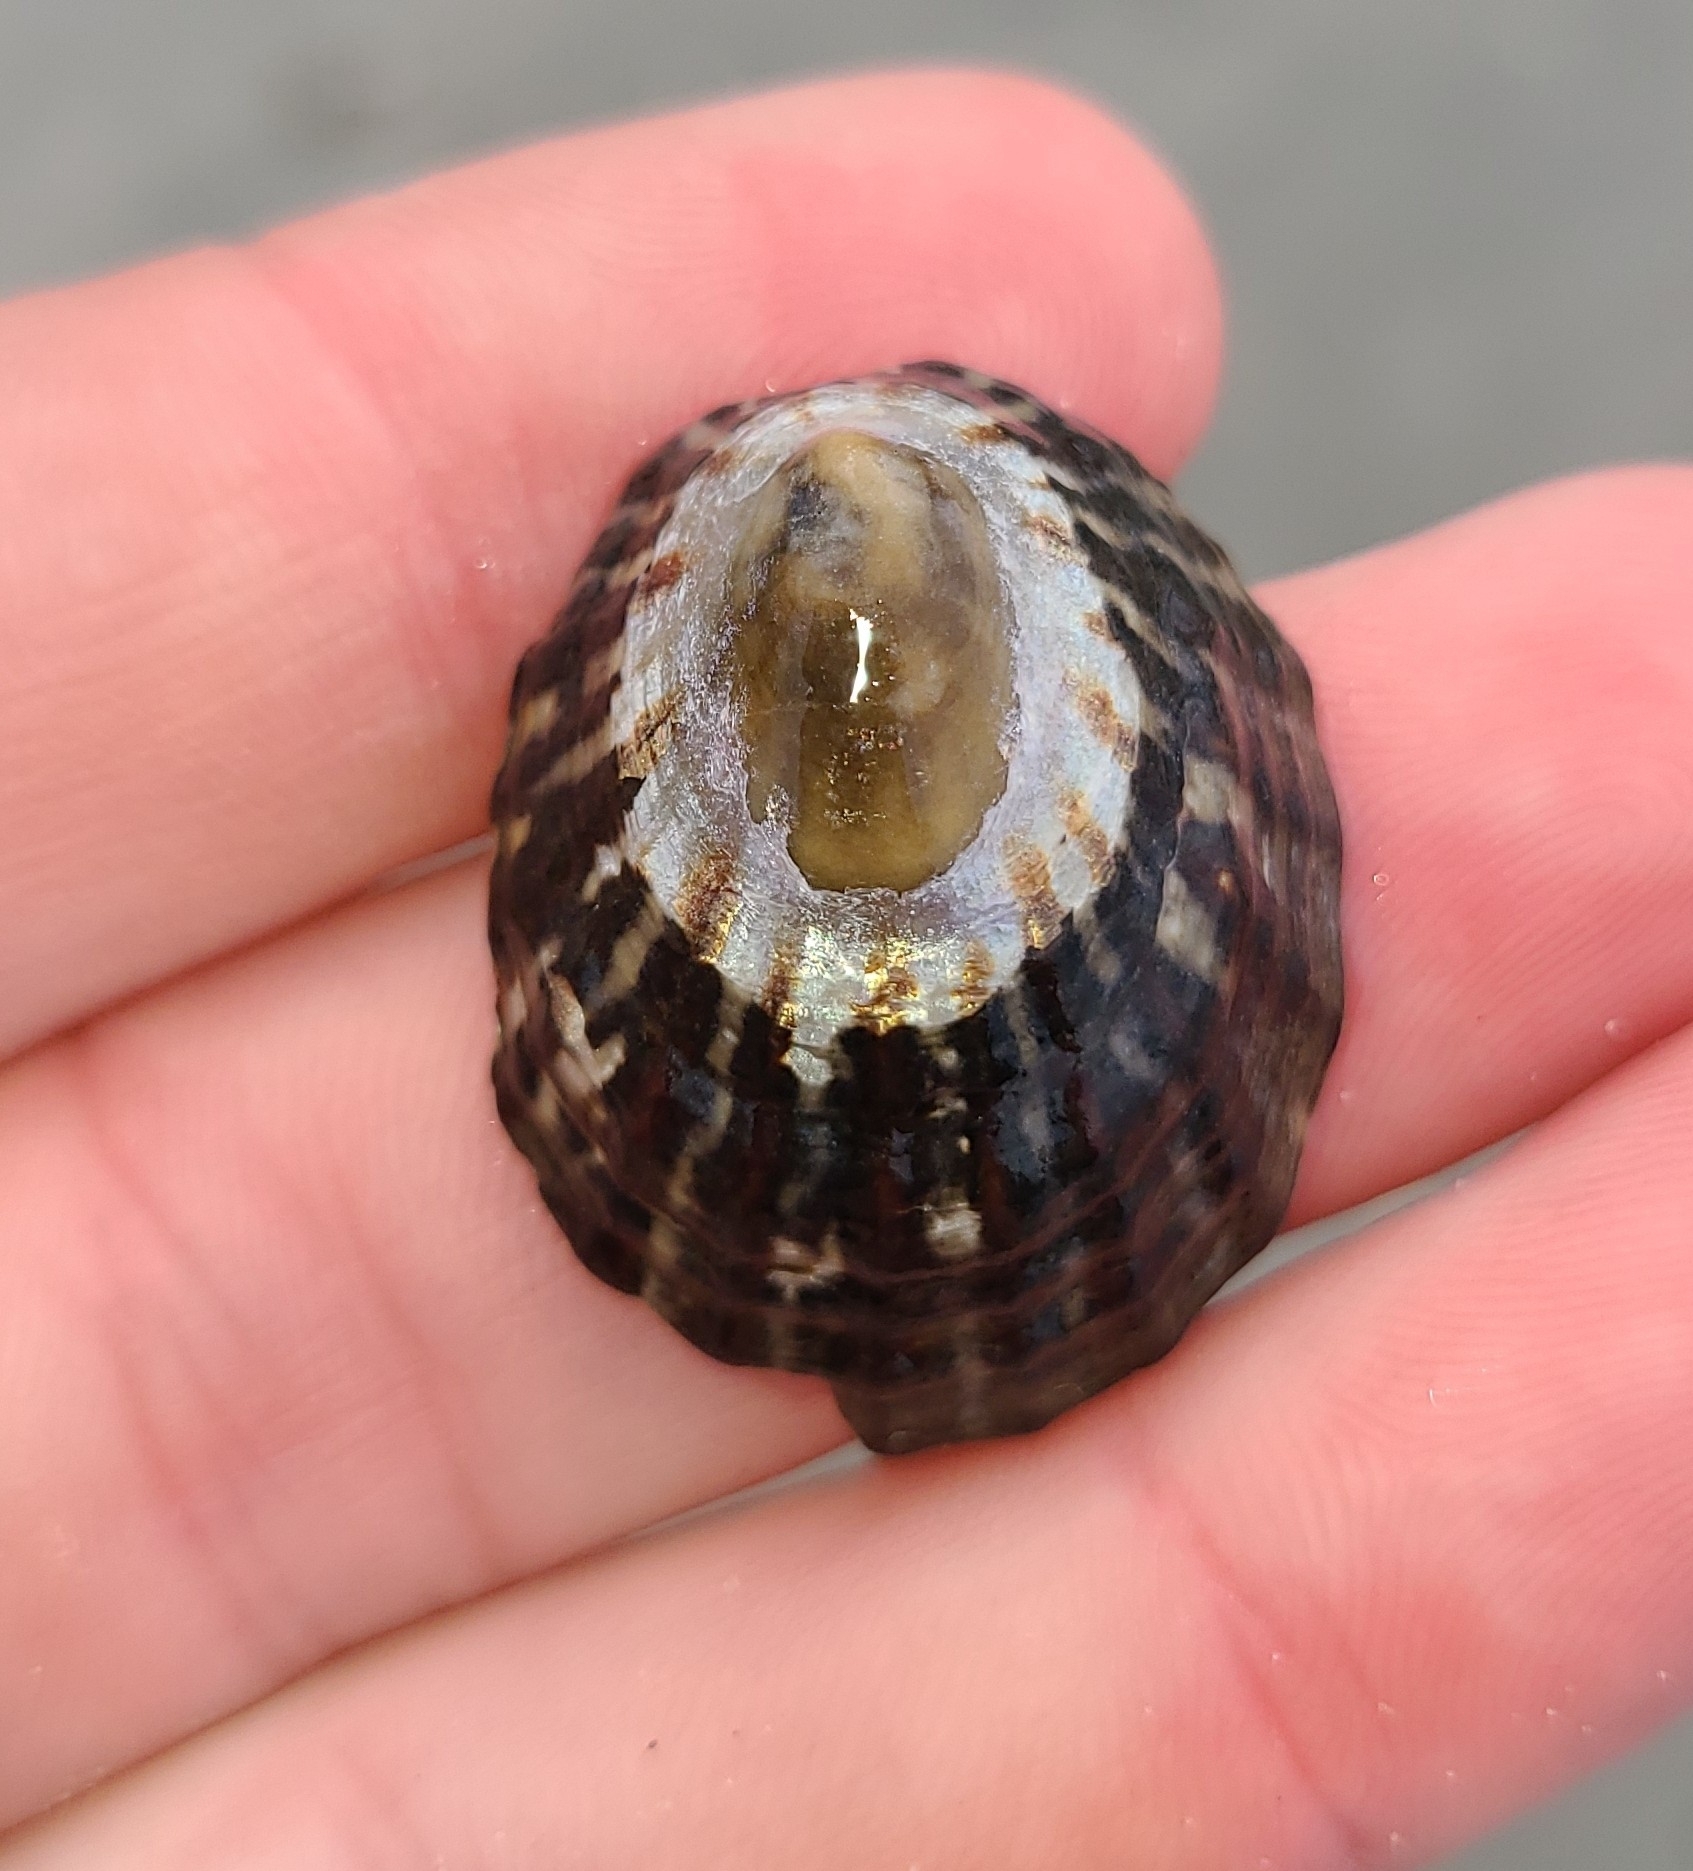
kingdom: Animalia
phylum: Mollusca
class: Gastropoda
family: Nacellidae
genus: Cellana
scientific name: Cellana strigilis
